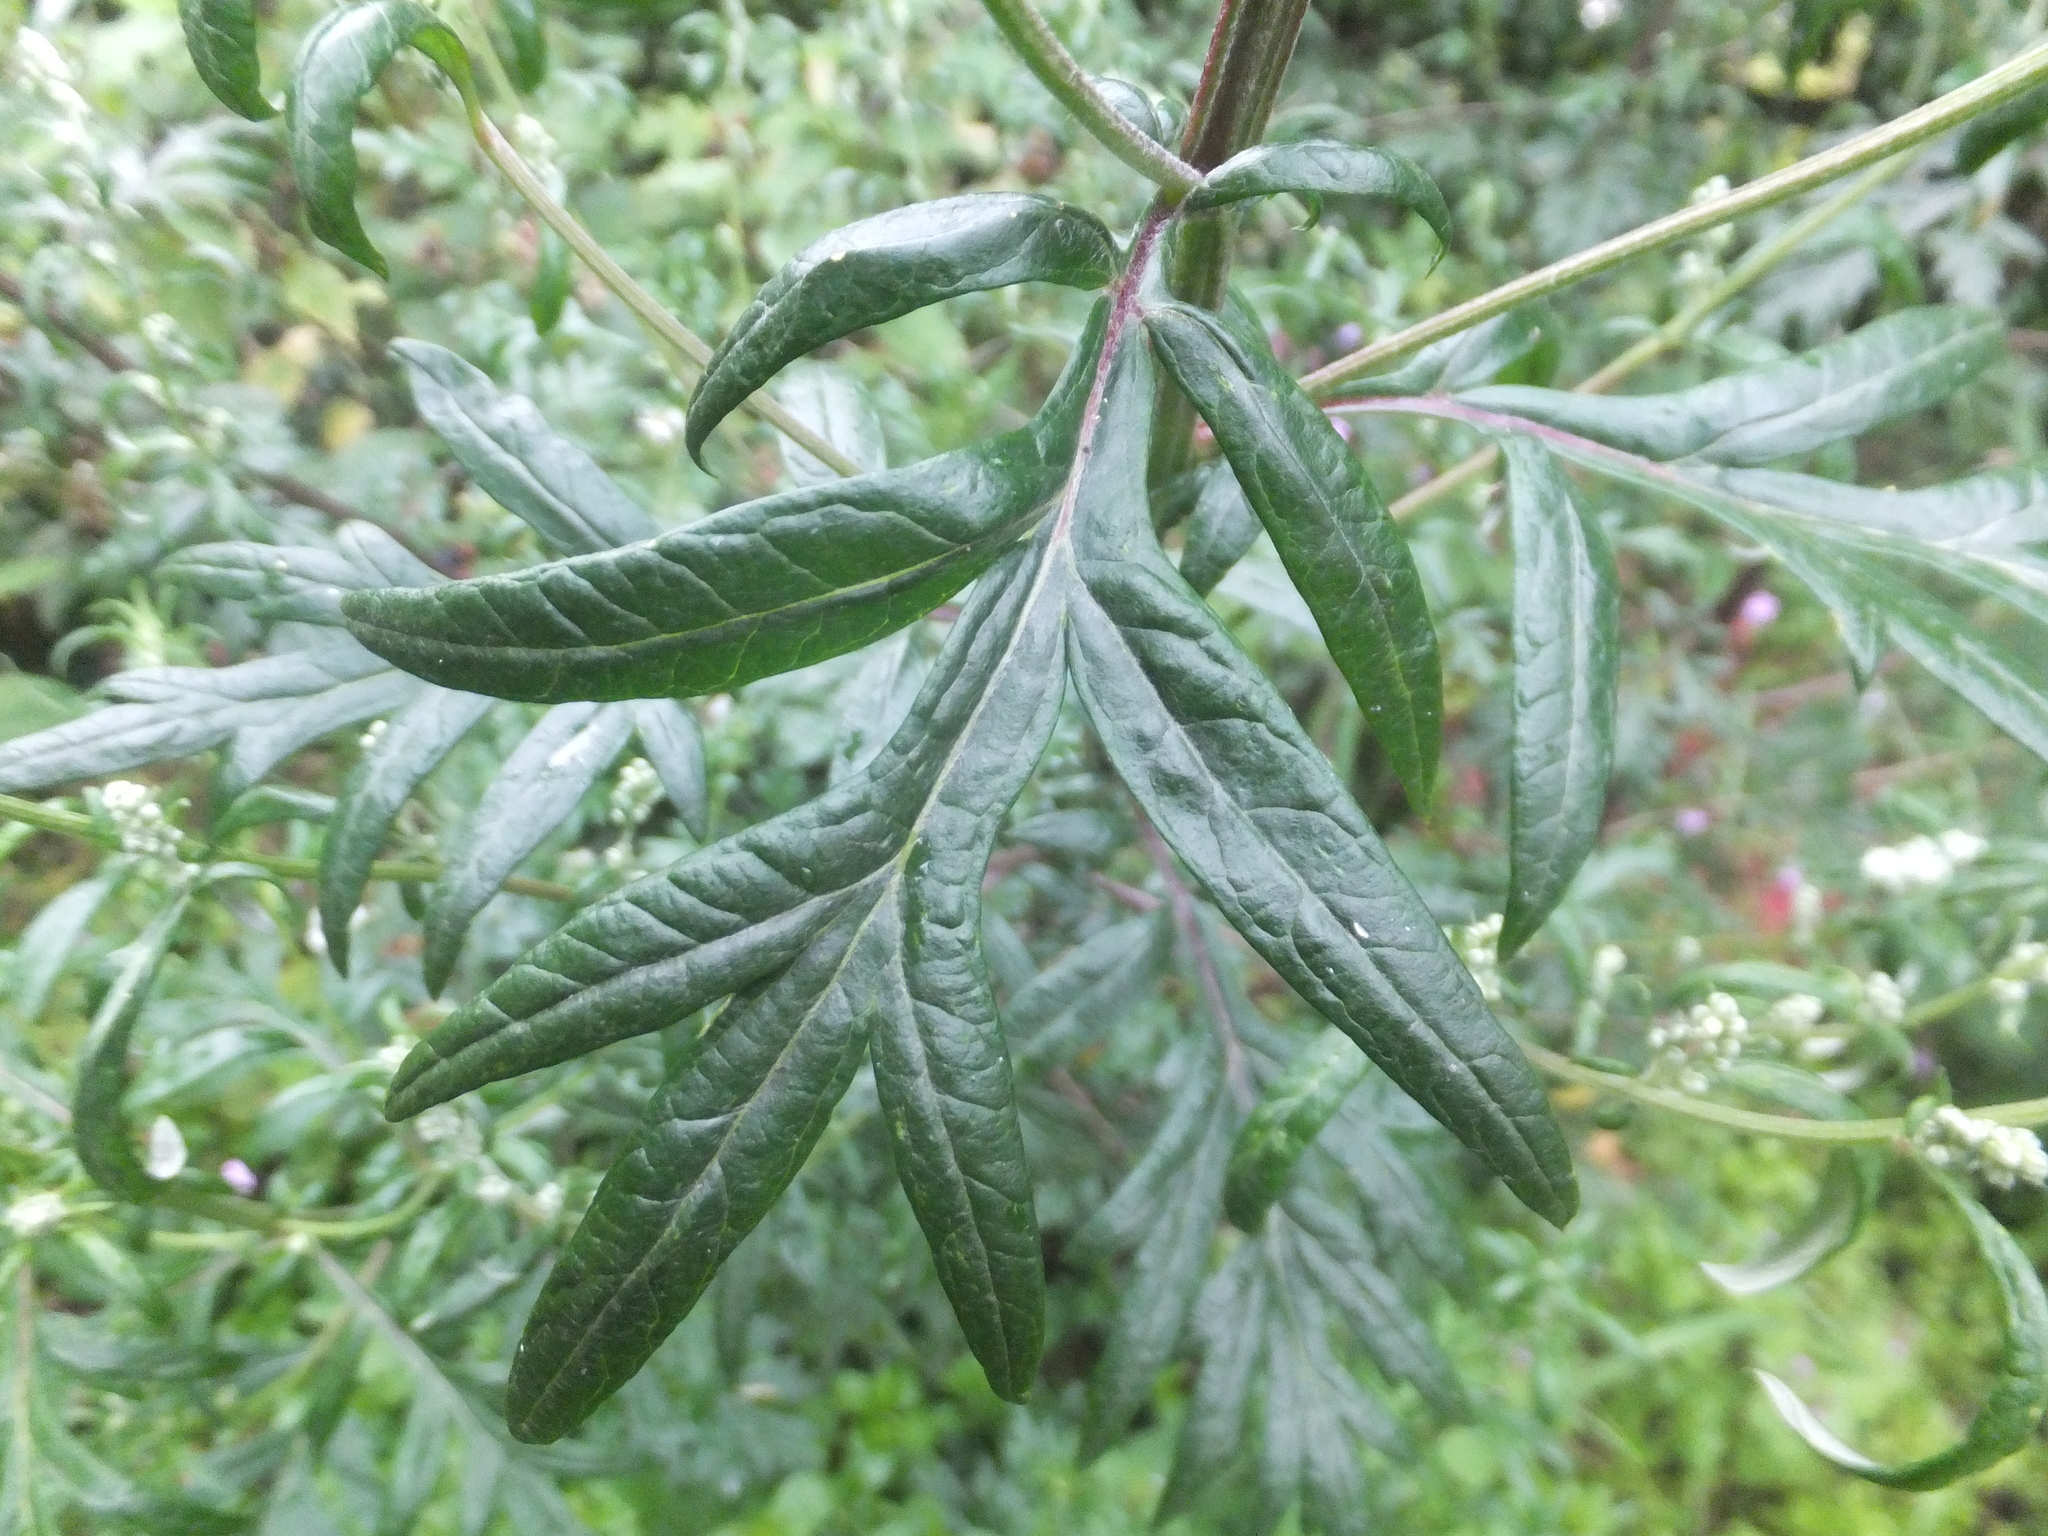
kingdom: Plantae
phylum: Tracheophyta
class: Magnoliopsida
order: Asterales
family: Asteraceae
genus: Artemisia
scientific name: Artemisia vulgaris
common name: Mugwort
